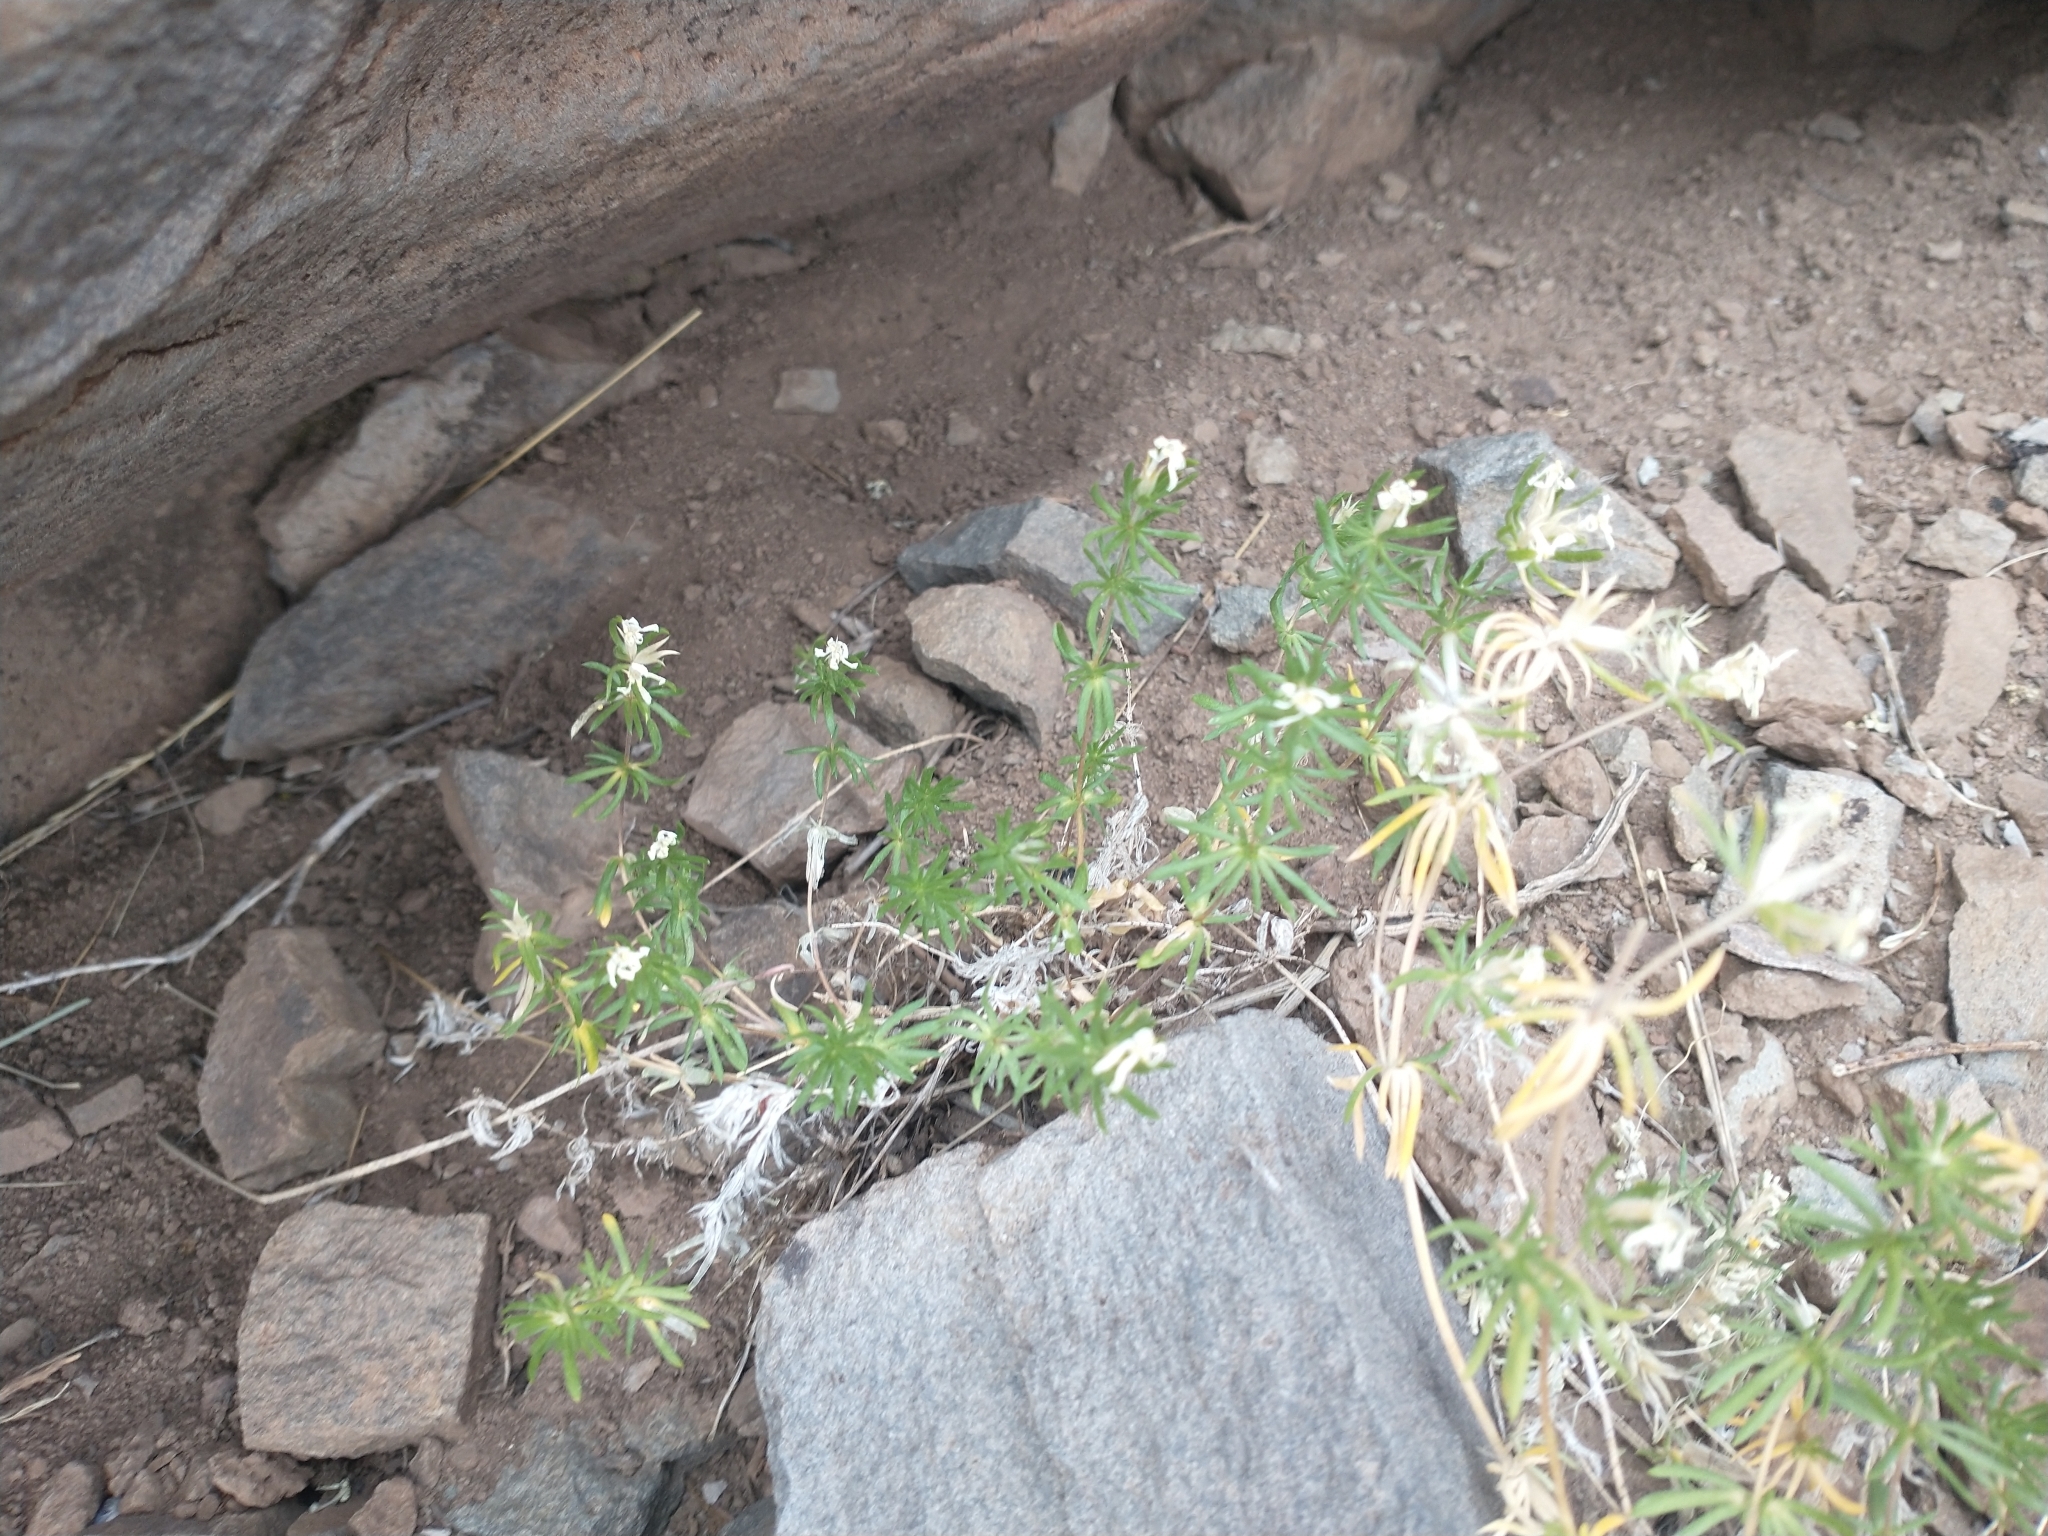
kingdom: Plantae
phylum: Tracheophyta
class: Magnoliopsida
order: Ericales
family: Polemoniaceae
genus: Leptosiphon
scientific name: Leptosiphon nuttallii
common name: Nuttall's linanthus
